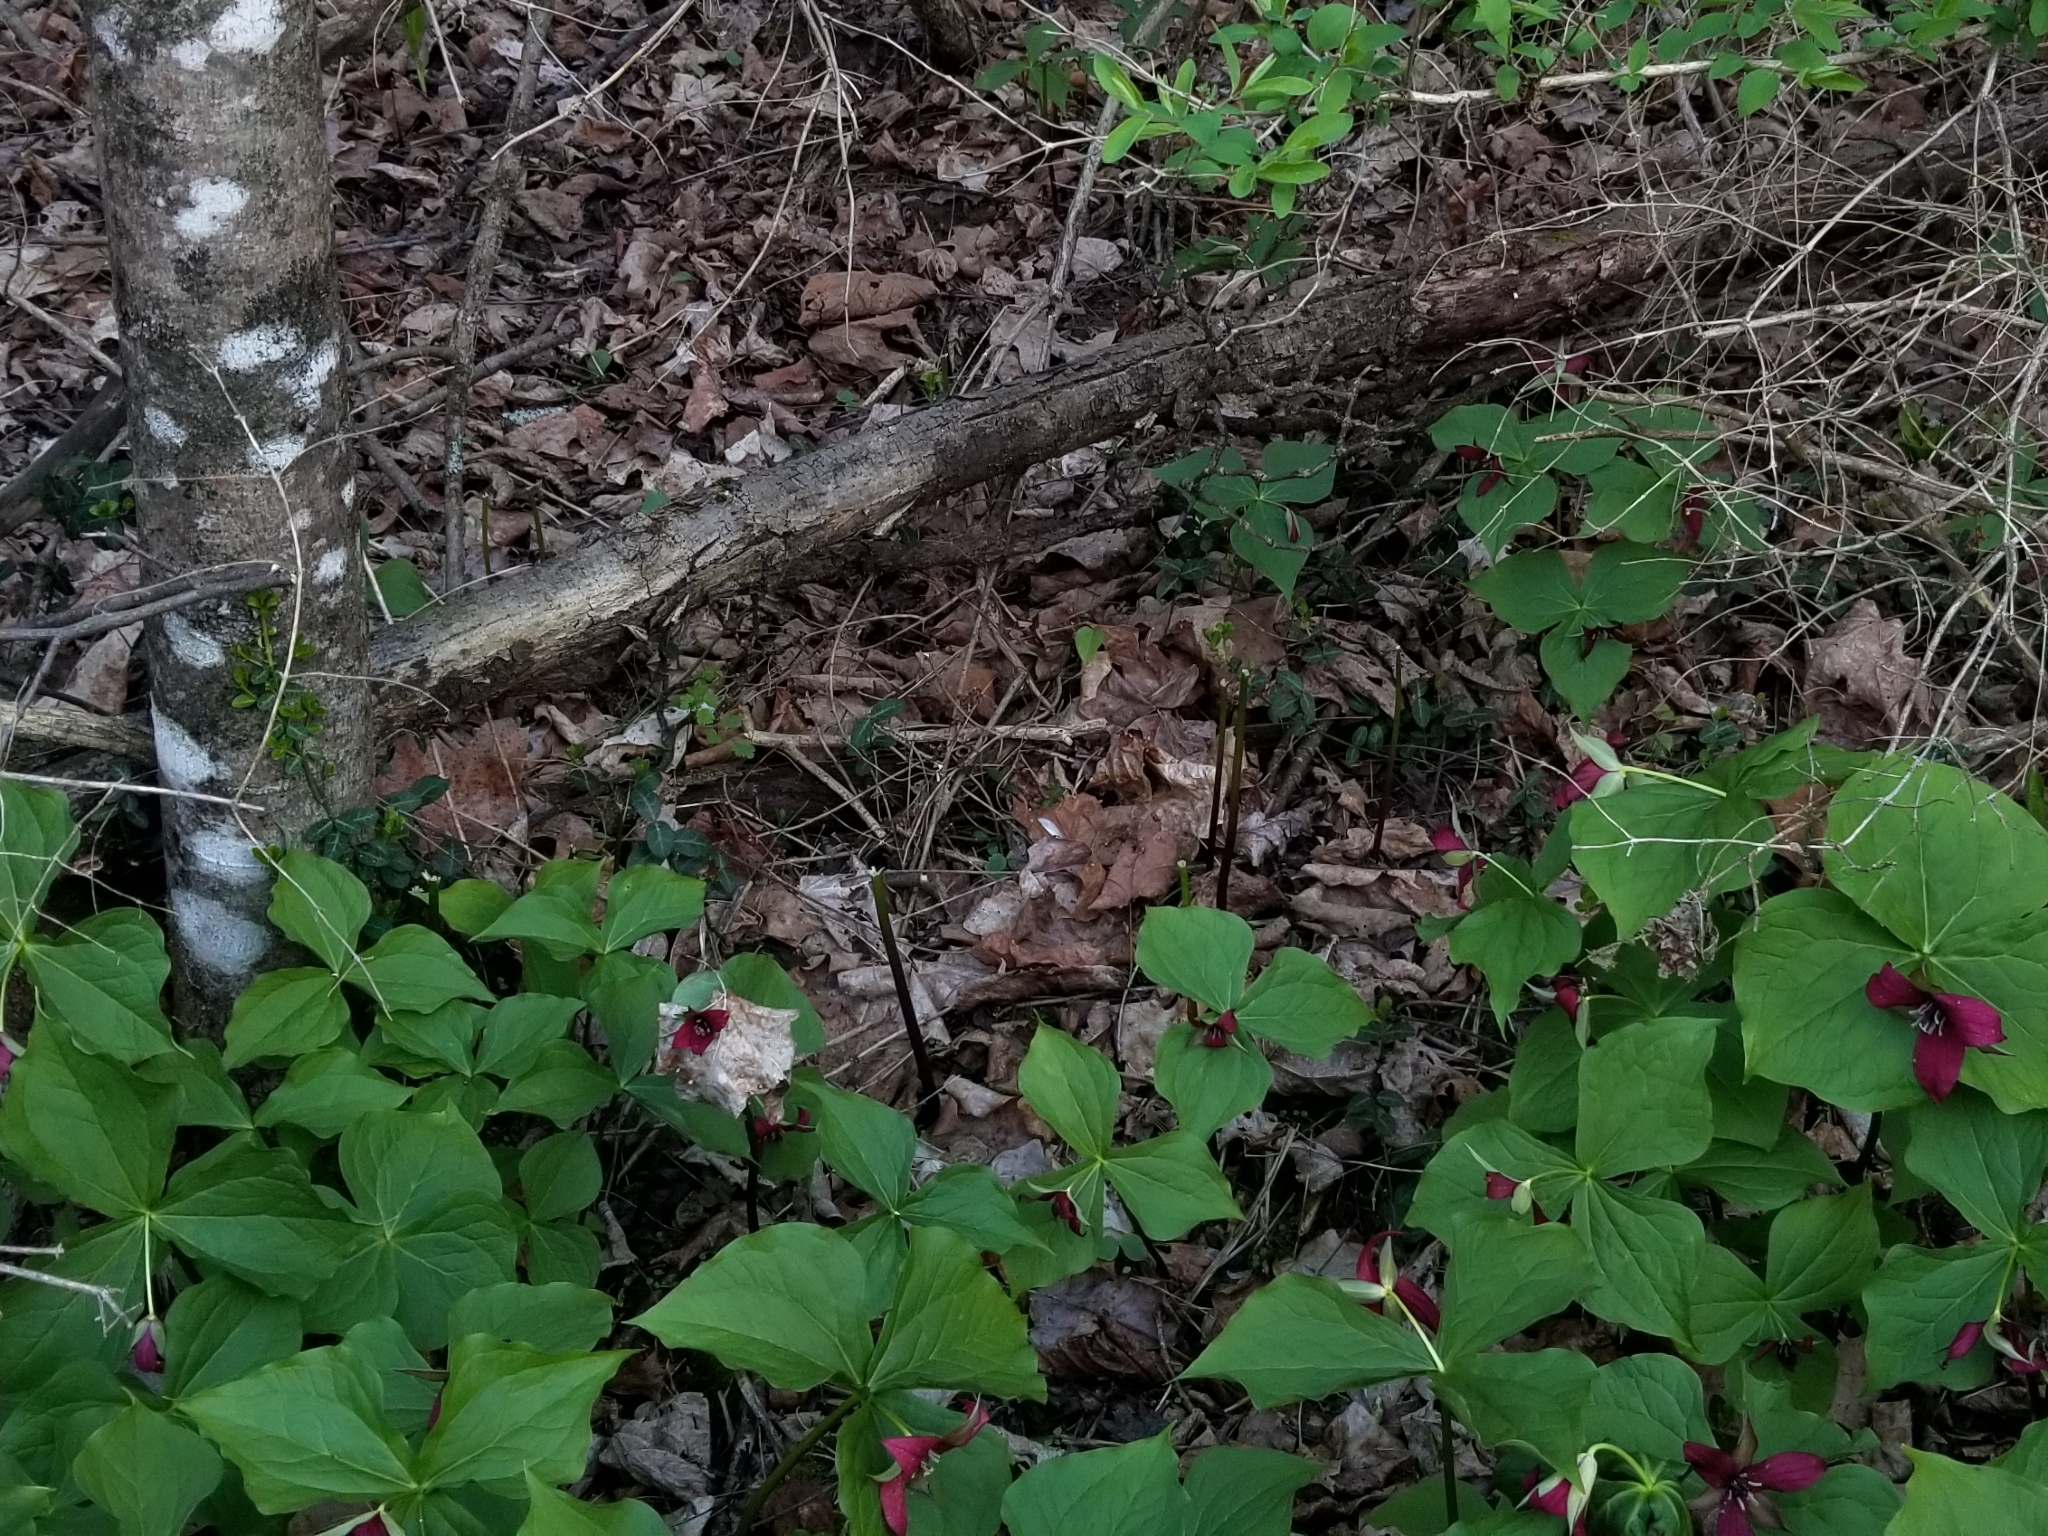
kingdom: Plantae
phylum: Tracheophyta
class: Liliopsida
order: Liliales
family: Melanthiaceae
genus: Trillium
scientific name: Trillium erectum
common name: Purple trillium
